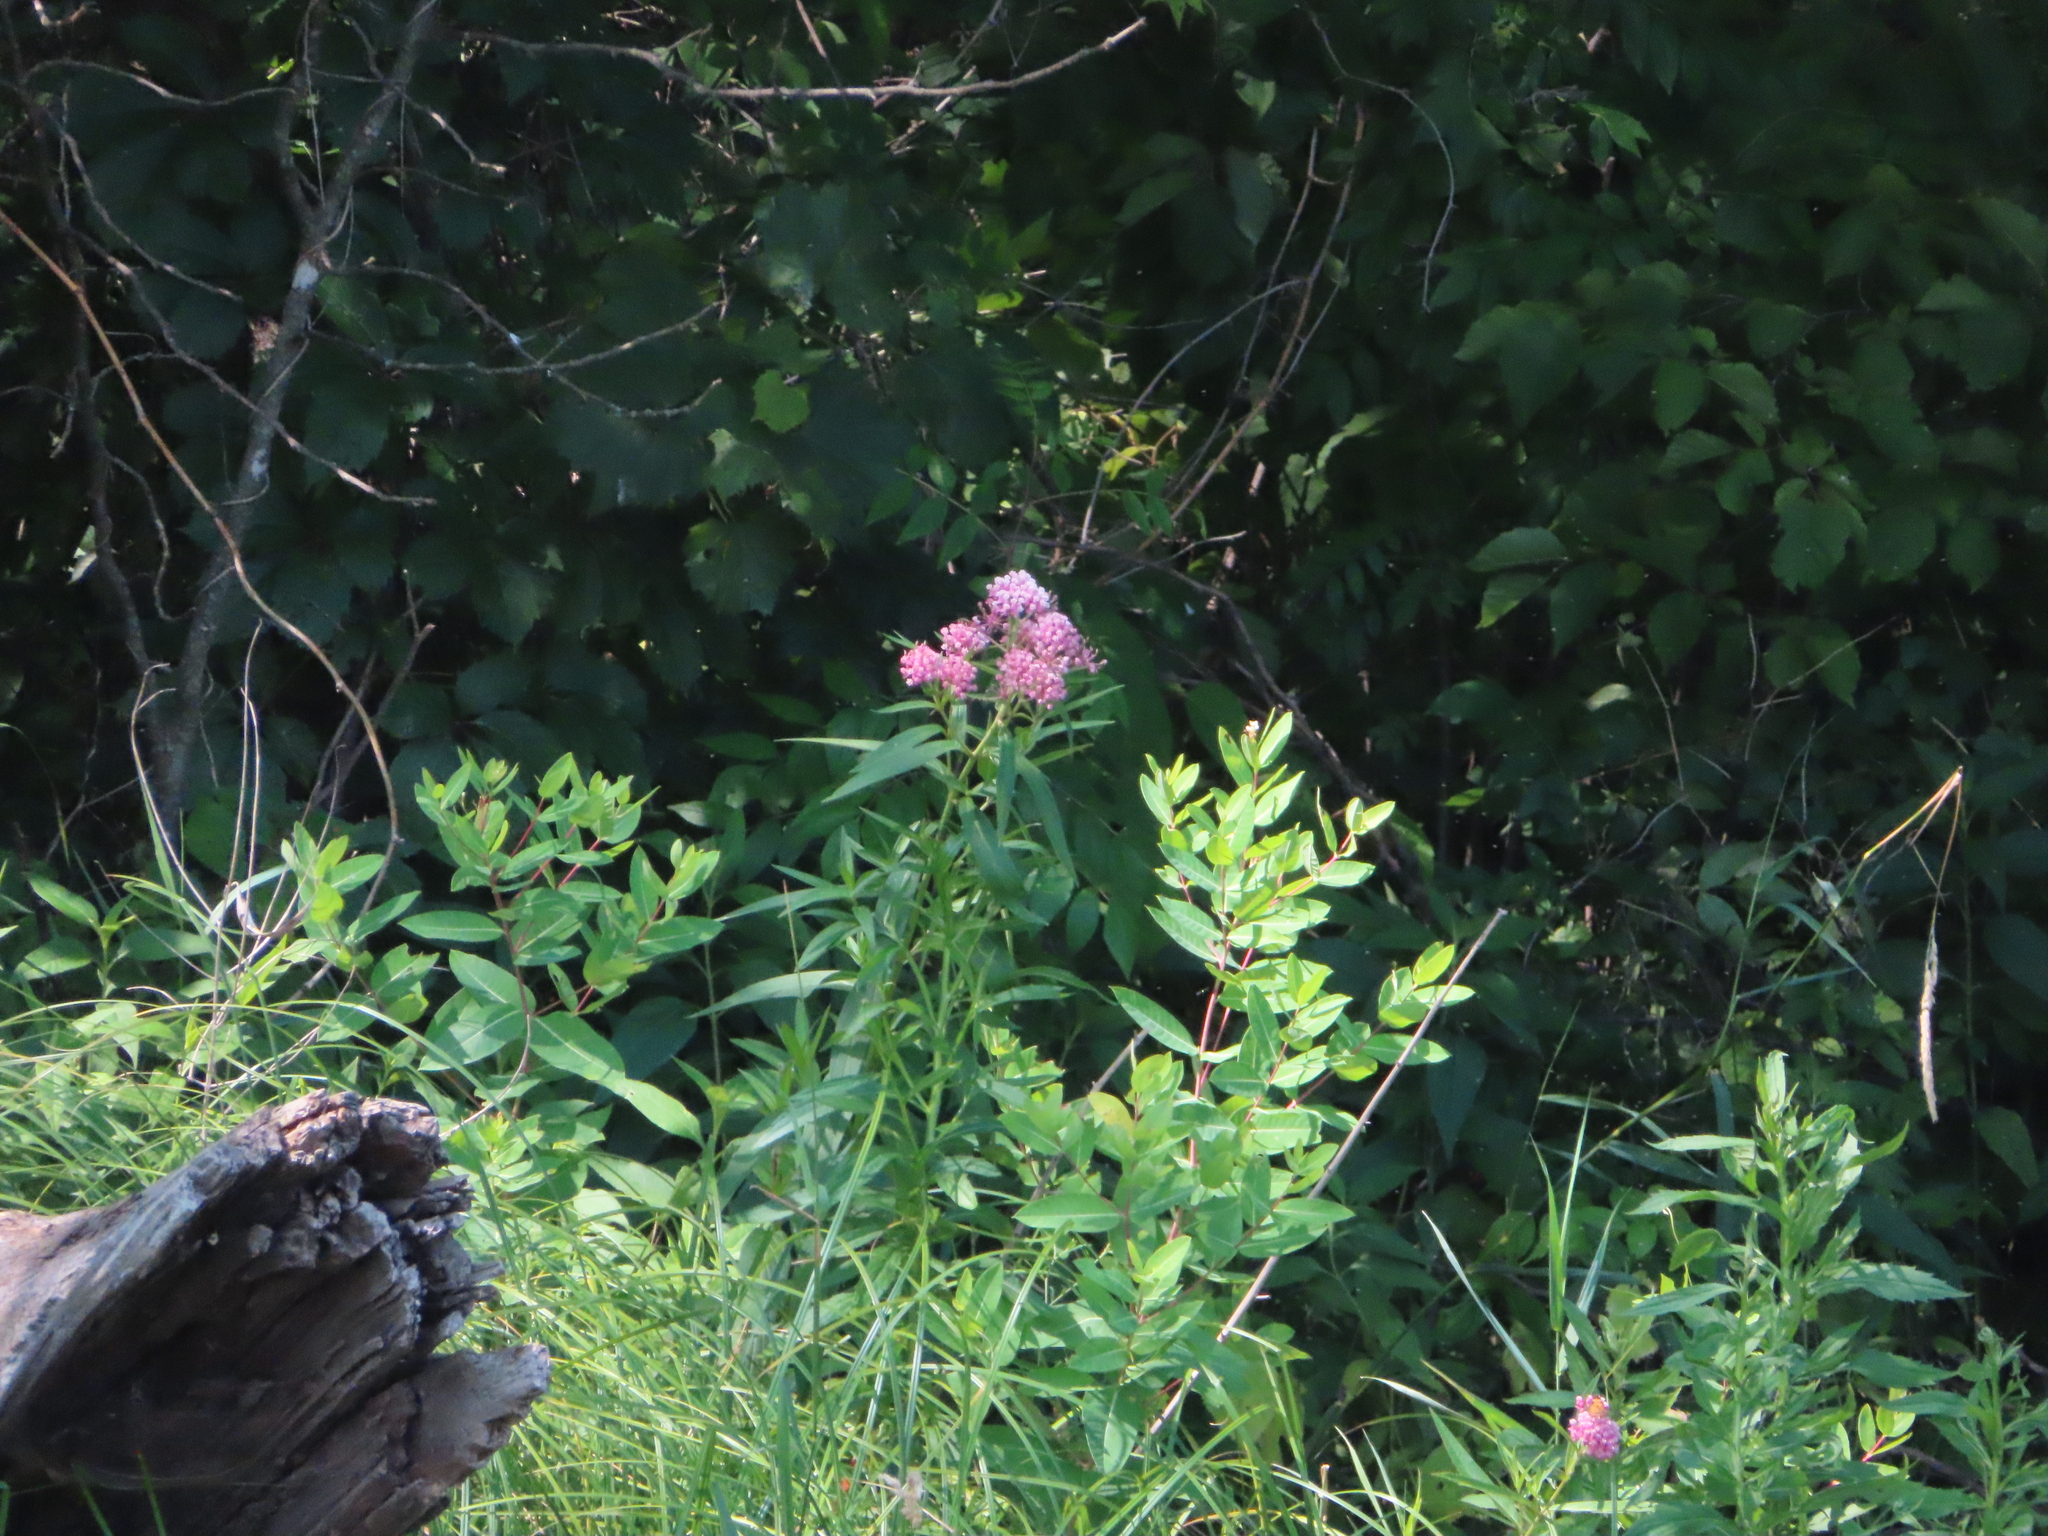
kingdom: Plantae
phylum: Tracheophyta
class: Magnoliopsida
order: Gentianales
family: Apocynaceae
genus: Asclepias
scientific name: Asclepias incarnata
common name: Swamp milkweed
